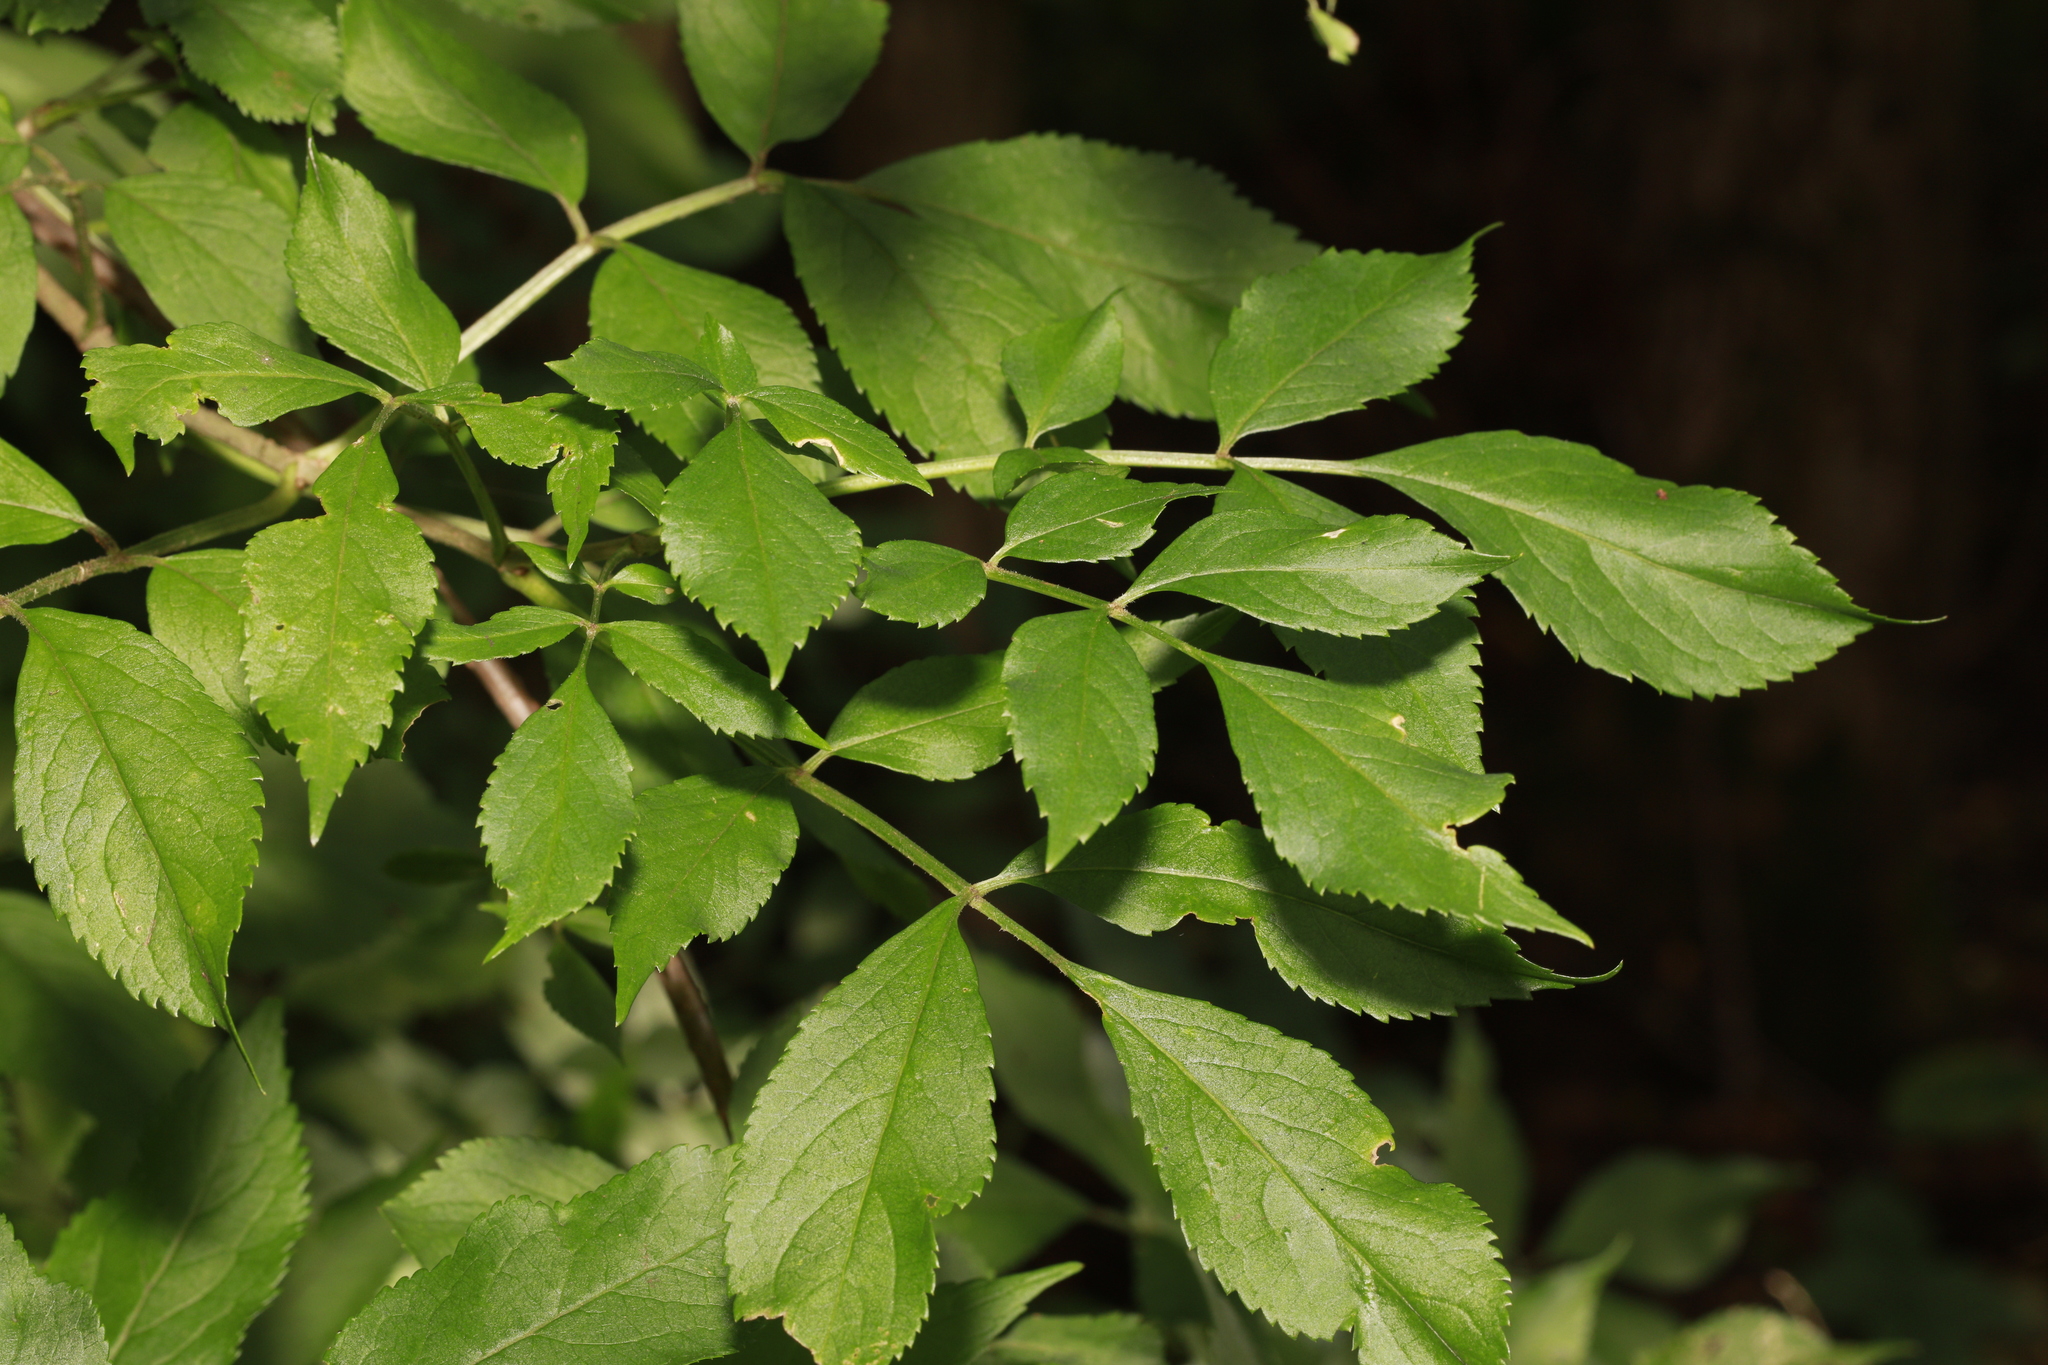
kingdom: Plantae
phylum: Tracheophyta
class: Magnoliopsida
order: Dipsacales
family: Viburnaceae
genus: Sambucus
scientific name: Sambucus nigra
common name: Elder
